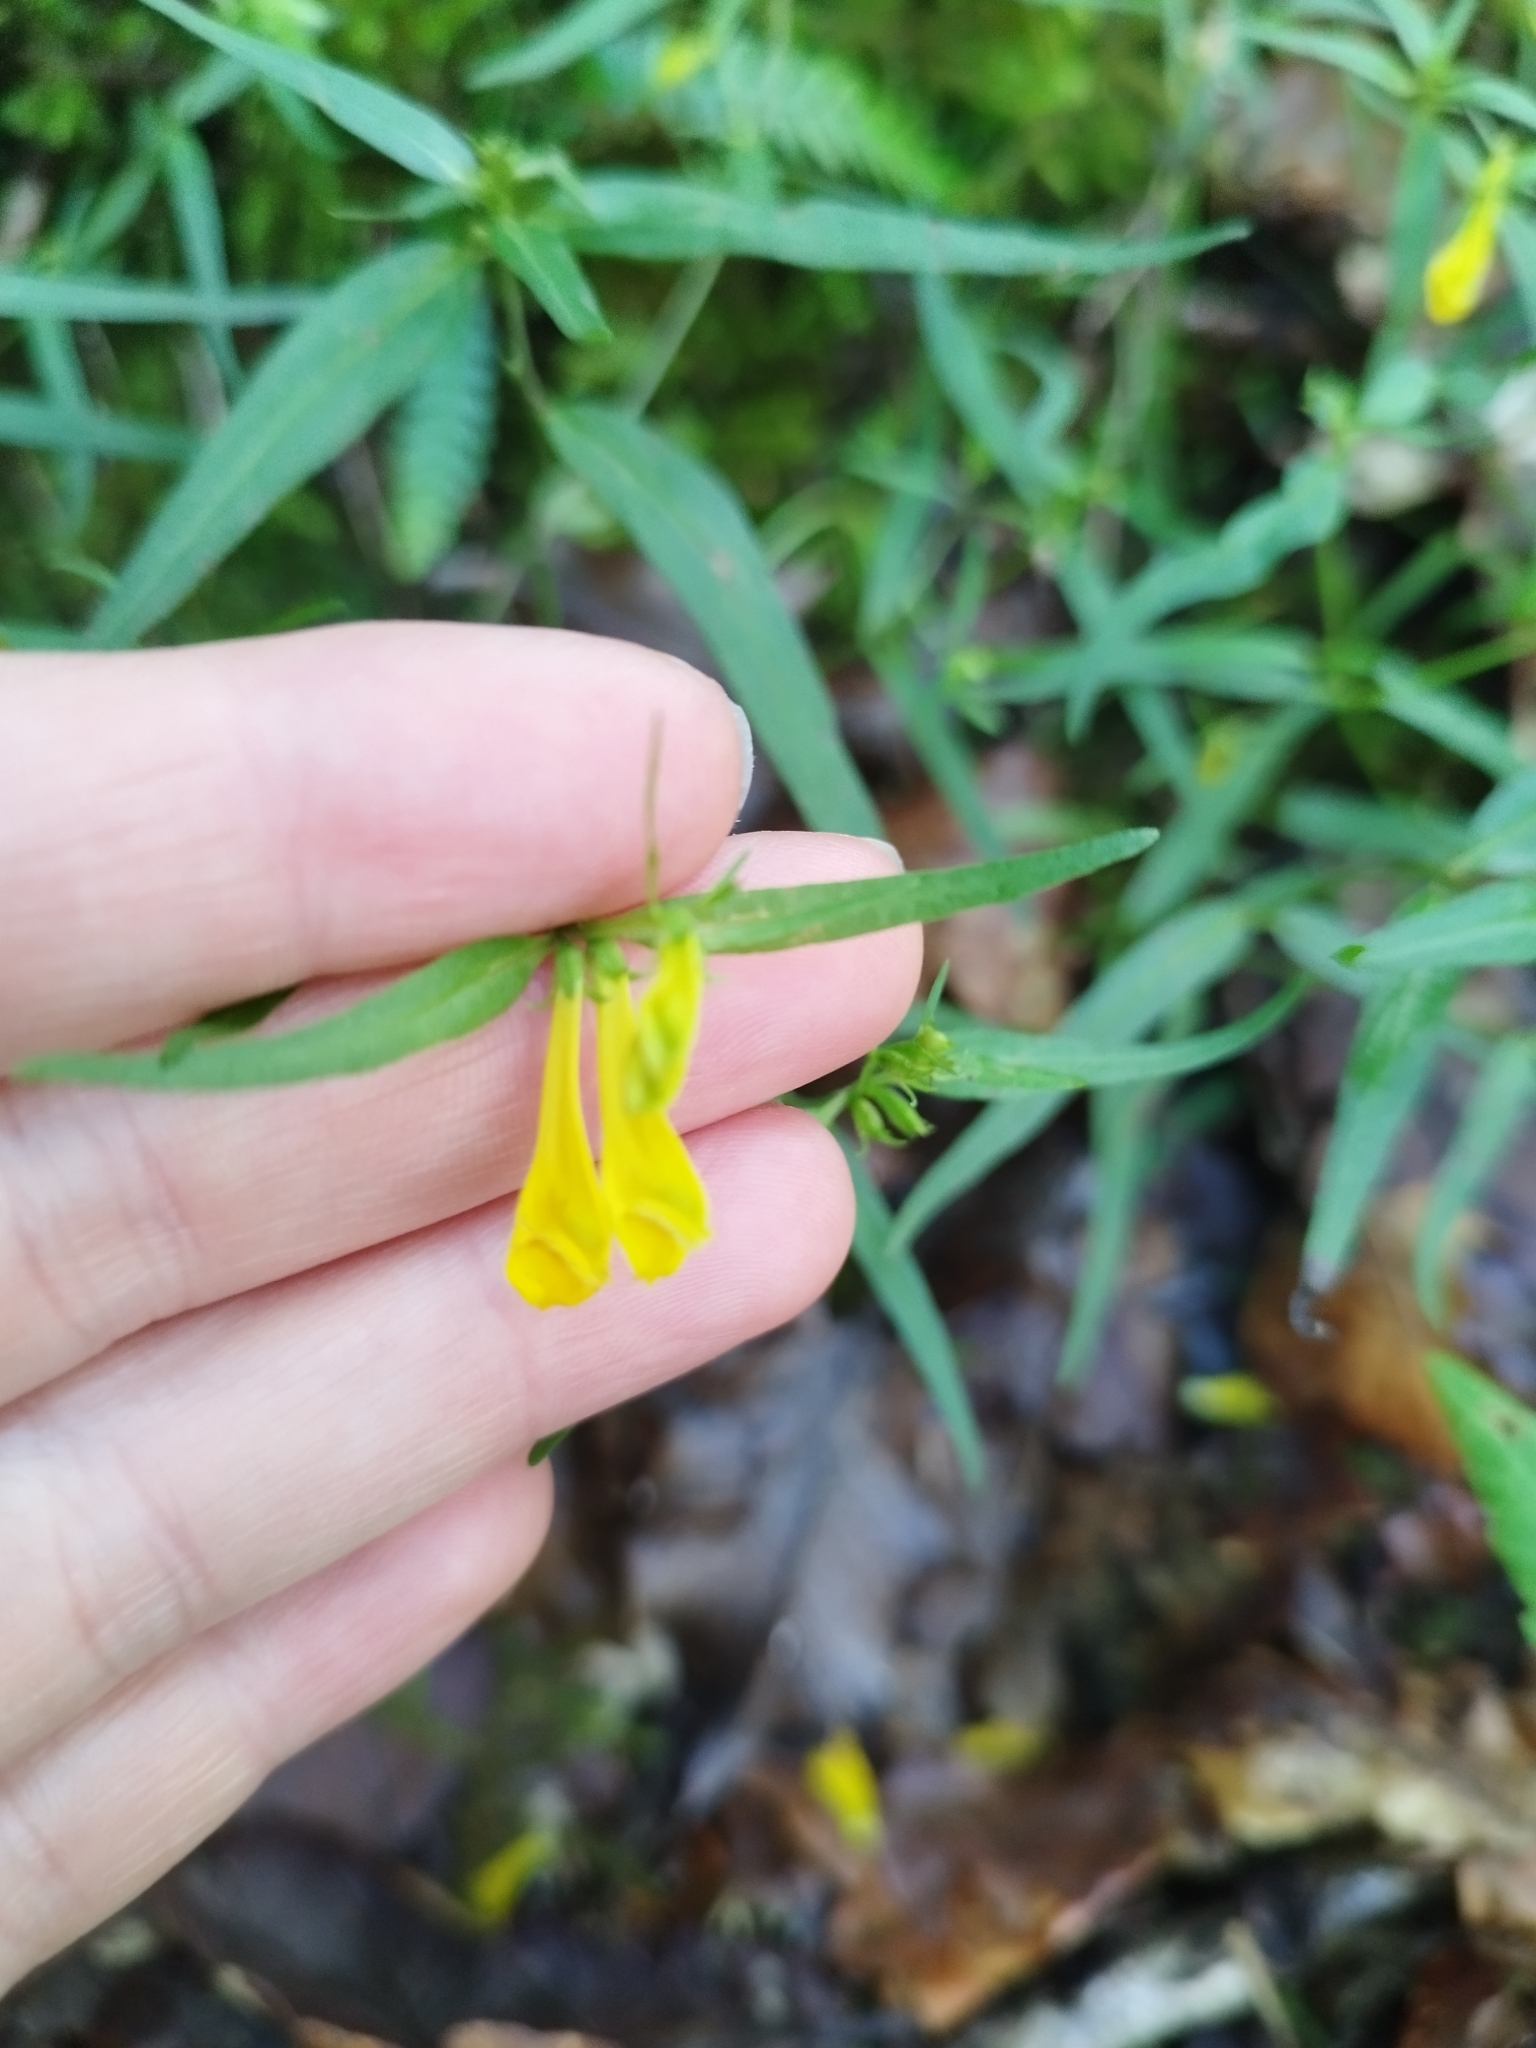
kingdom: Plantae
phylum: Tracheophyta
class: Magnoliopsida
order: Lamiales
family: Orobanchaceae
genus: Melampyrum
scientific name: Melampyrum pratense
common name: Common cow-wheat
